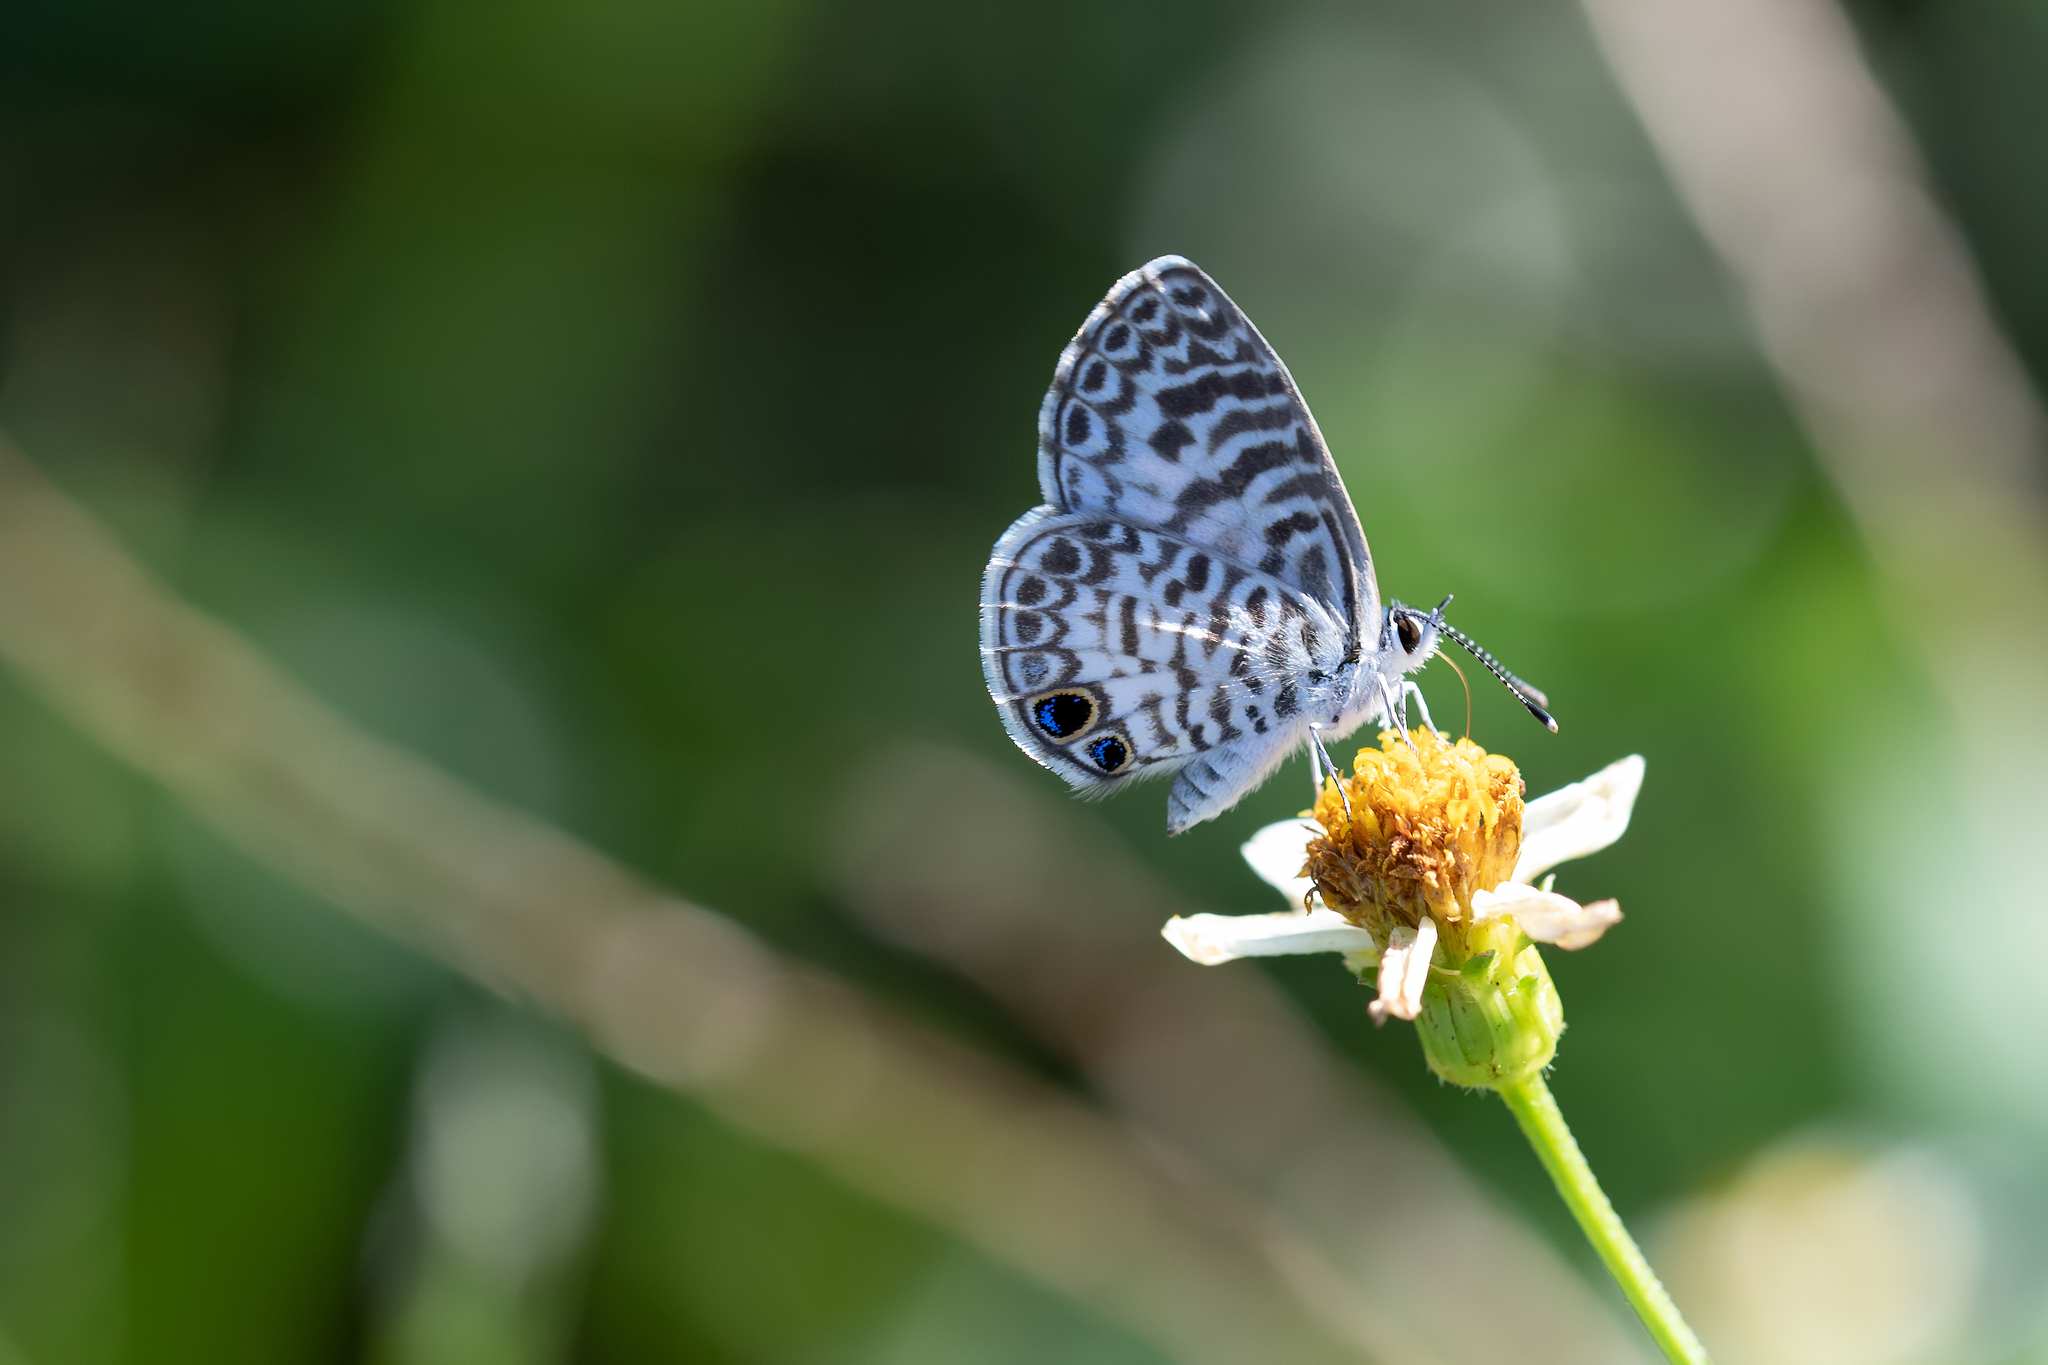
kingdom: Animalia
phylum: Arthropoda
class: Insecta
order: Lepidoptera
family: Lycaenidae
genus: Leptotes
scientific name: Leptotes cassius
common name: Cassius blue
